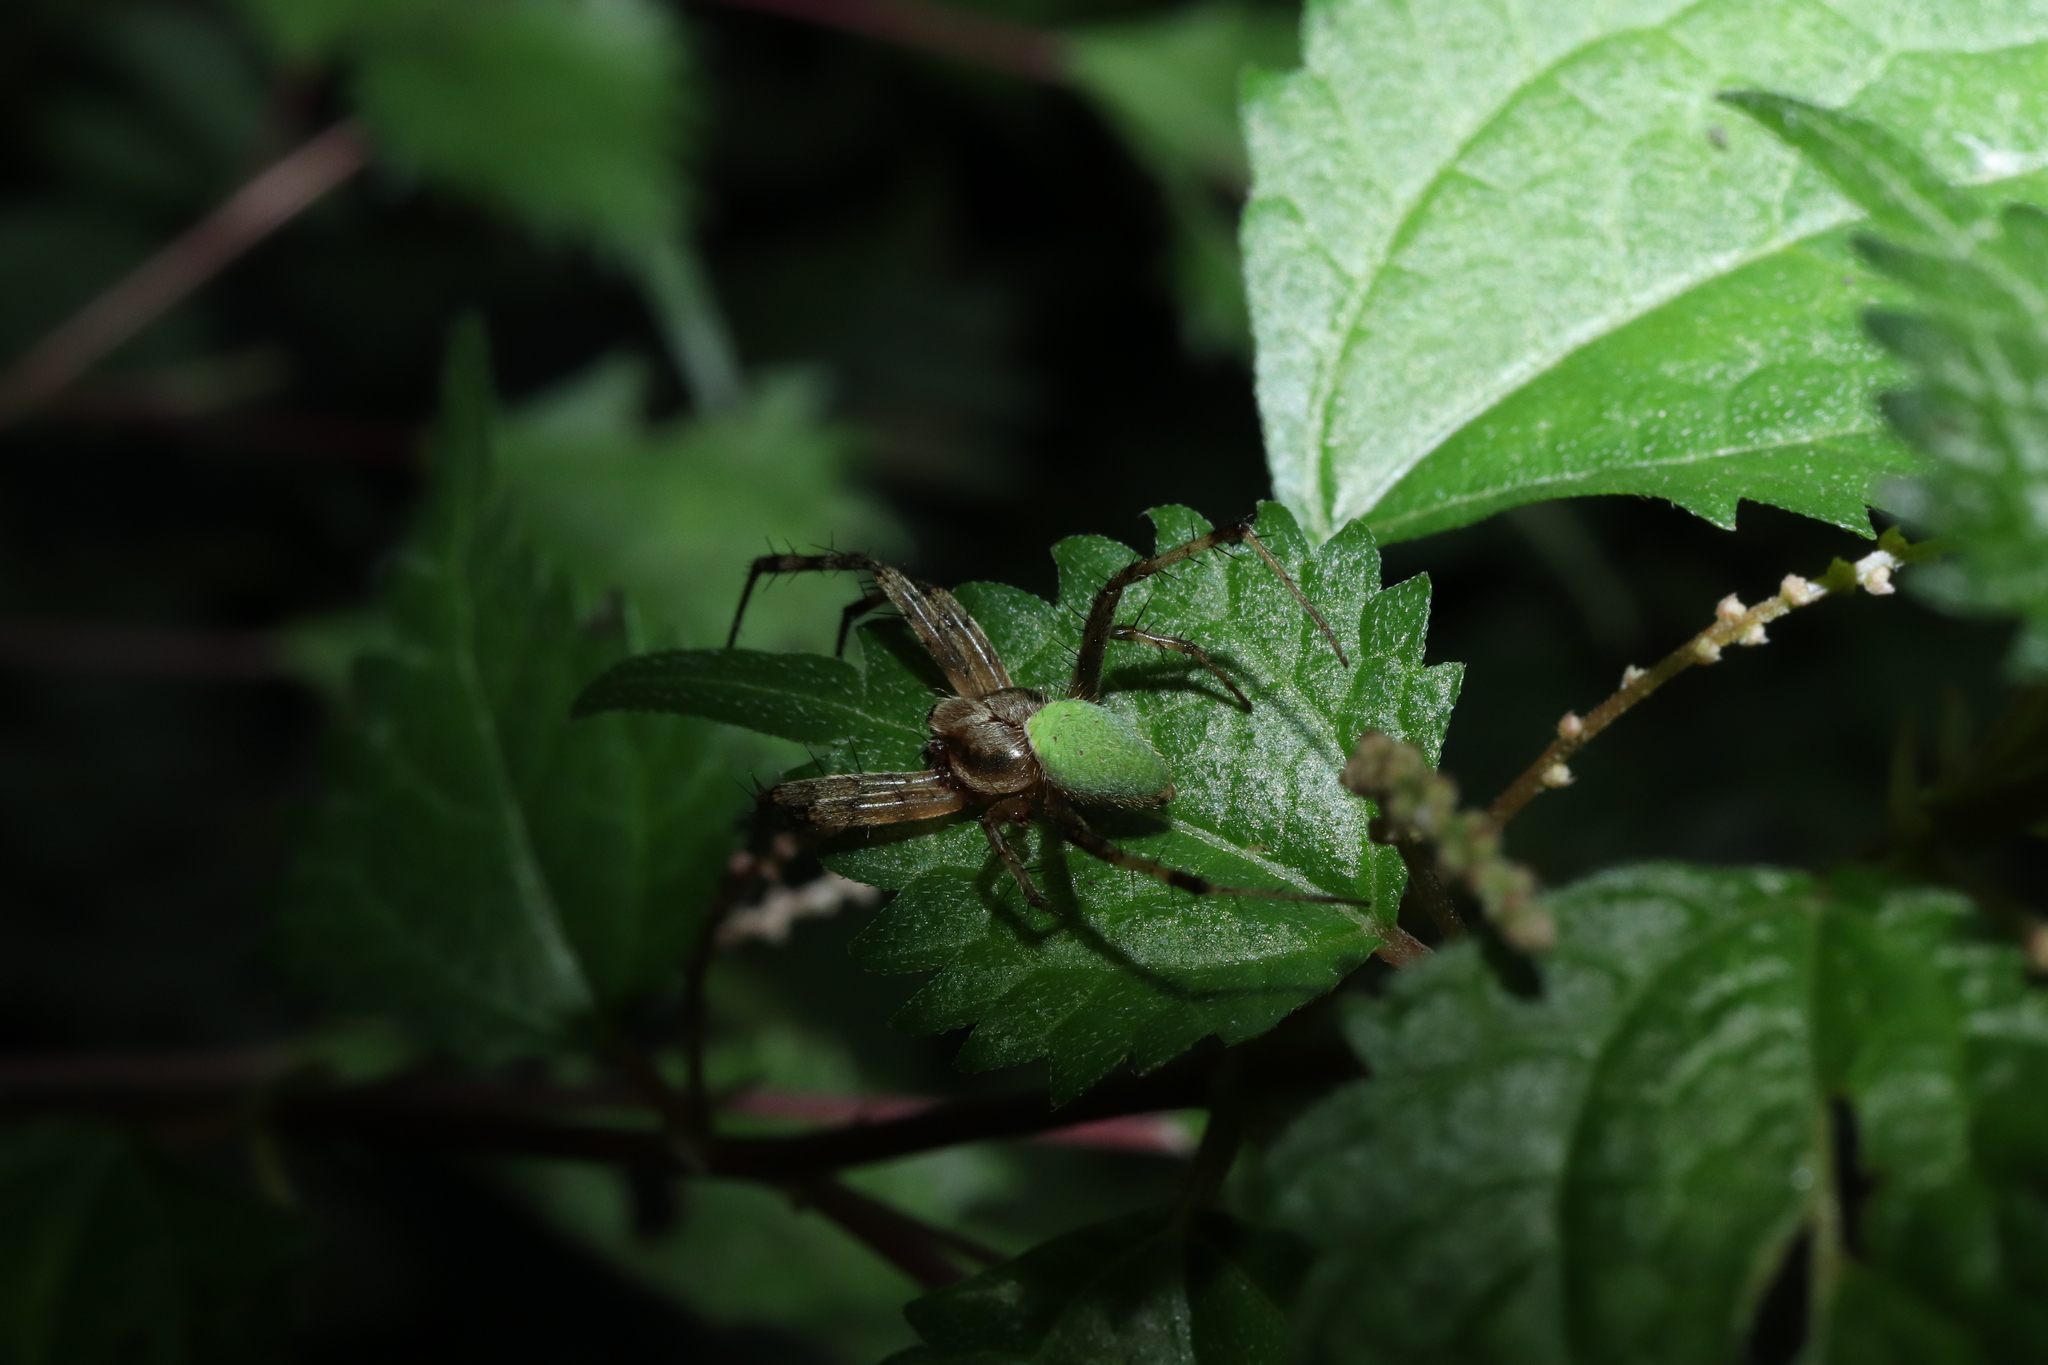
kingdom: Animalia
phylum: Arthropoda
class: Arachnida
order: Araneae
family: Araneidae
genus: Neoscona
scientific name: Neoscona mellotteei
